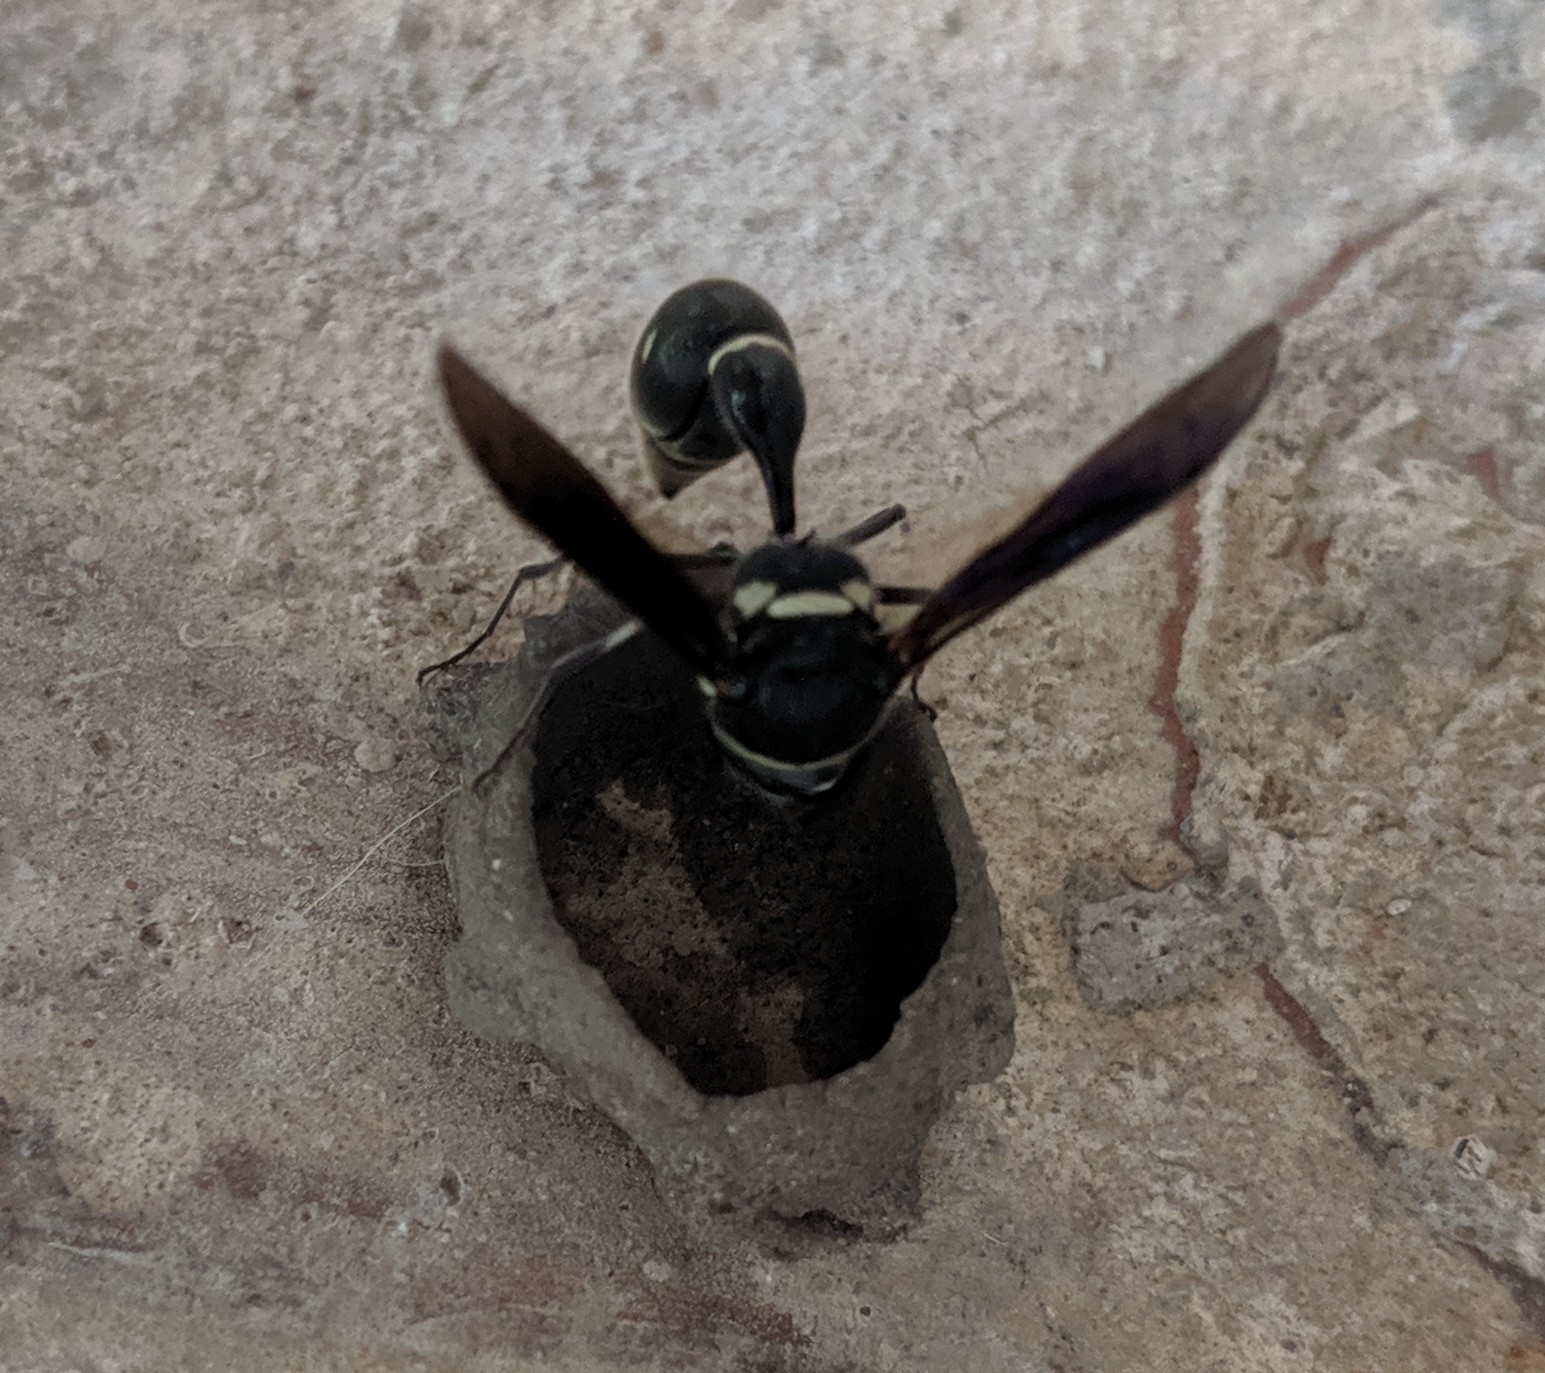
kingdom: Animalia
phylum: Arthropoda
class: Insecta
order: Hymenoptera
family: Vespidae
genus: Eumenes
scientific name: Eumenes fraternus
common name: Fraternal potter wasp
